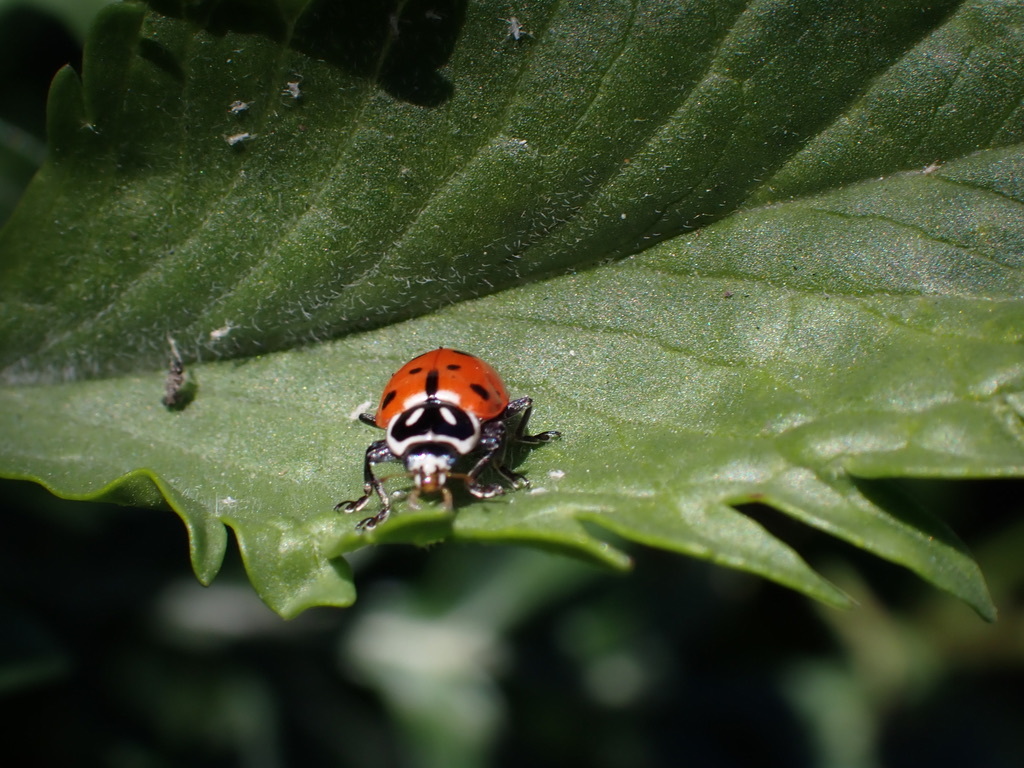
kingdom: Animalia
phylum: Arthropoda
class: Insecta
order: Coleoptera
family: Coccinellidae
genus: Hippodamia
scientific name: Hippodamia convergens
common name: Convergent lady beetle
